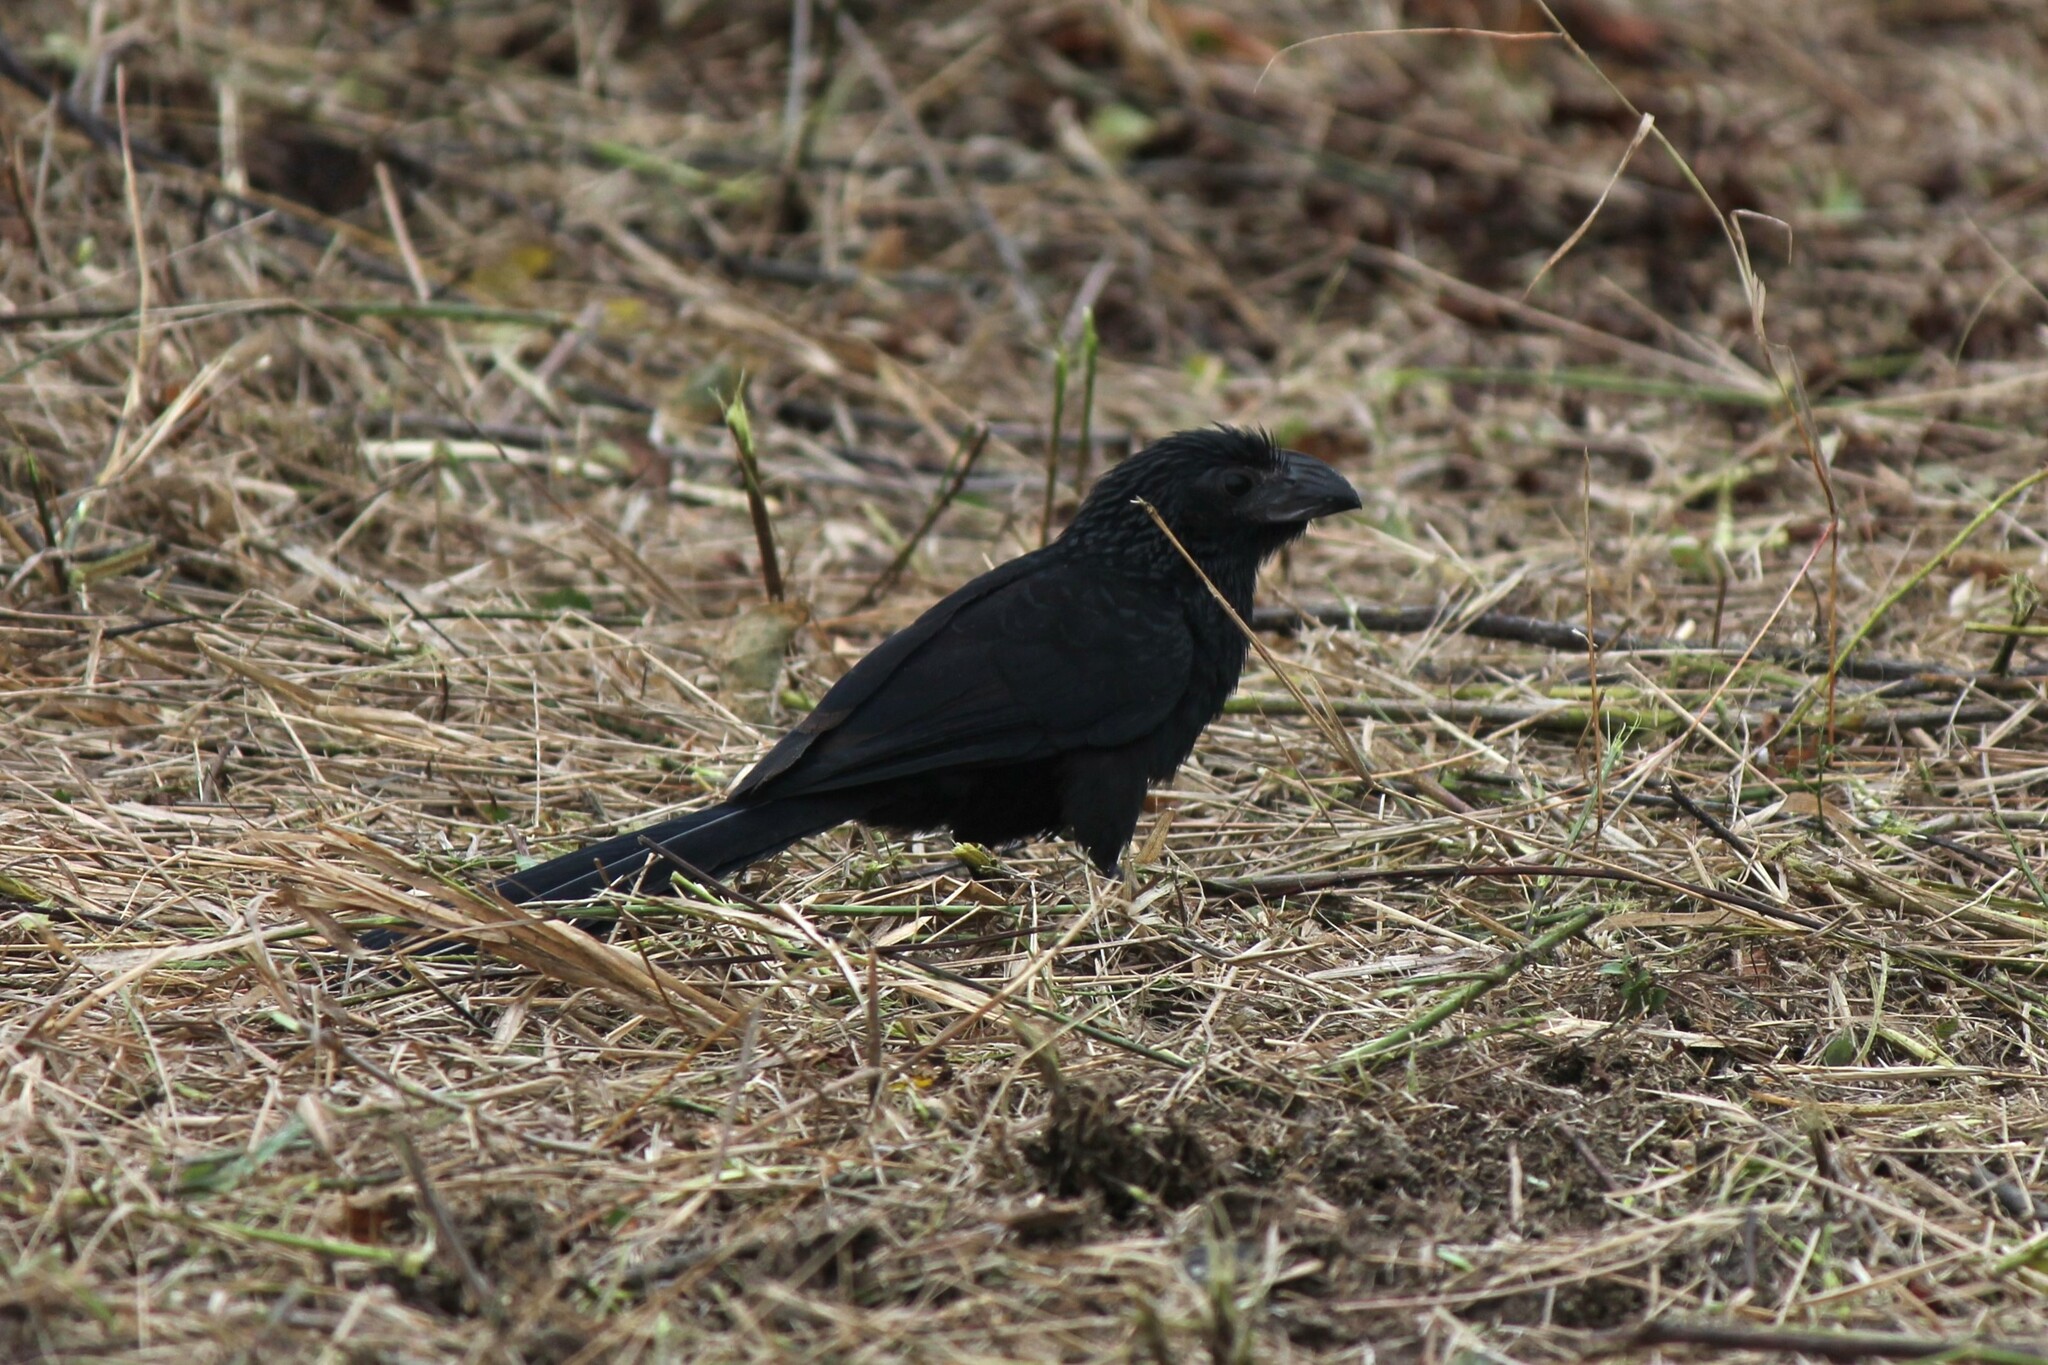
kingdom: Animalia
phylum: Chordata
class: Aves
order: Cuculiformes
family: Cuculidae
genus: Crotophaga
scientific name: Crotophaga sulcirostris
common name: Groove-billed ani
